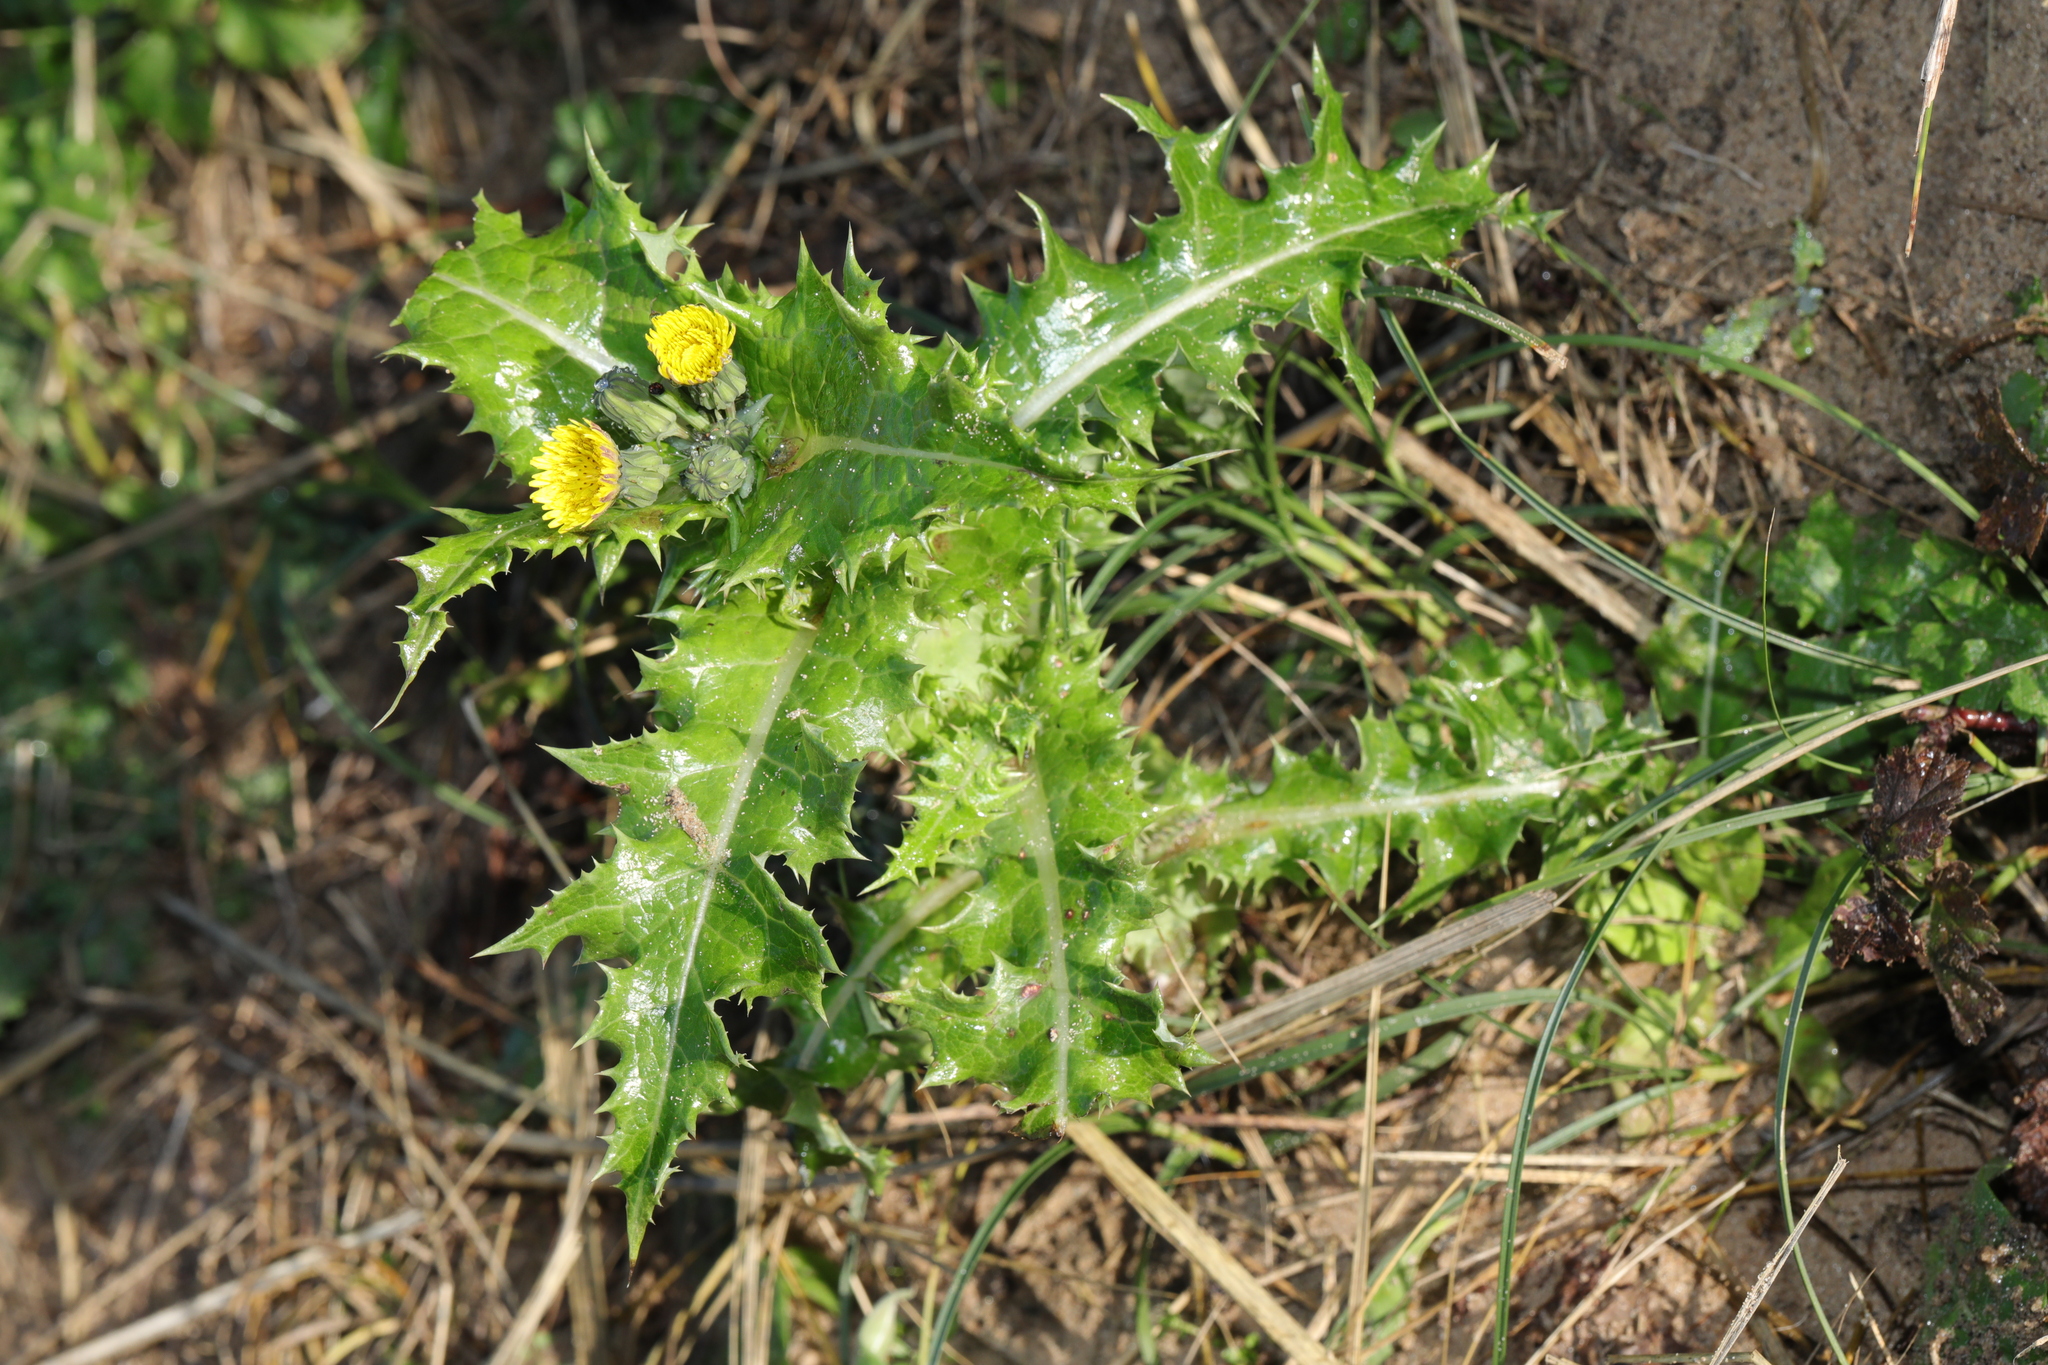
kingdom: Plantae
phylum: Tracheophyta
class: Magnoliopsida
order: Asterales
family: Asteraceae
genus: Sonchus
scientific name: Sonchus asper
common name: Prickly sow-thistle
